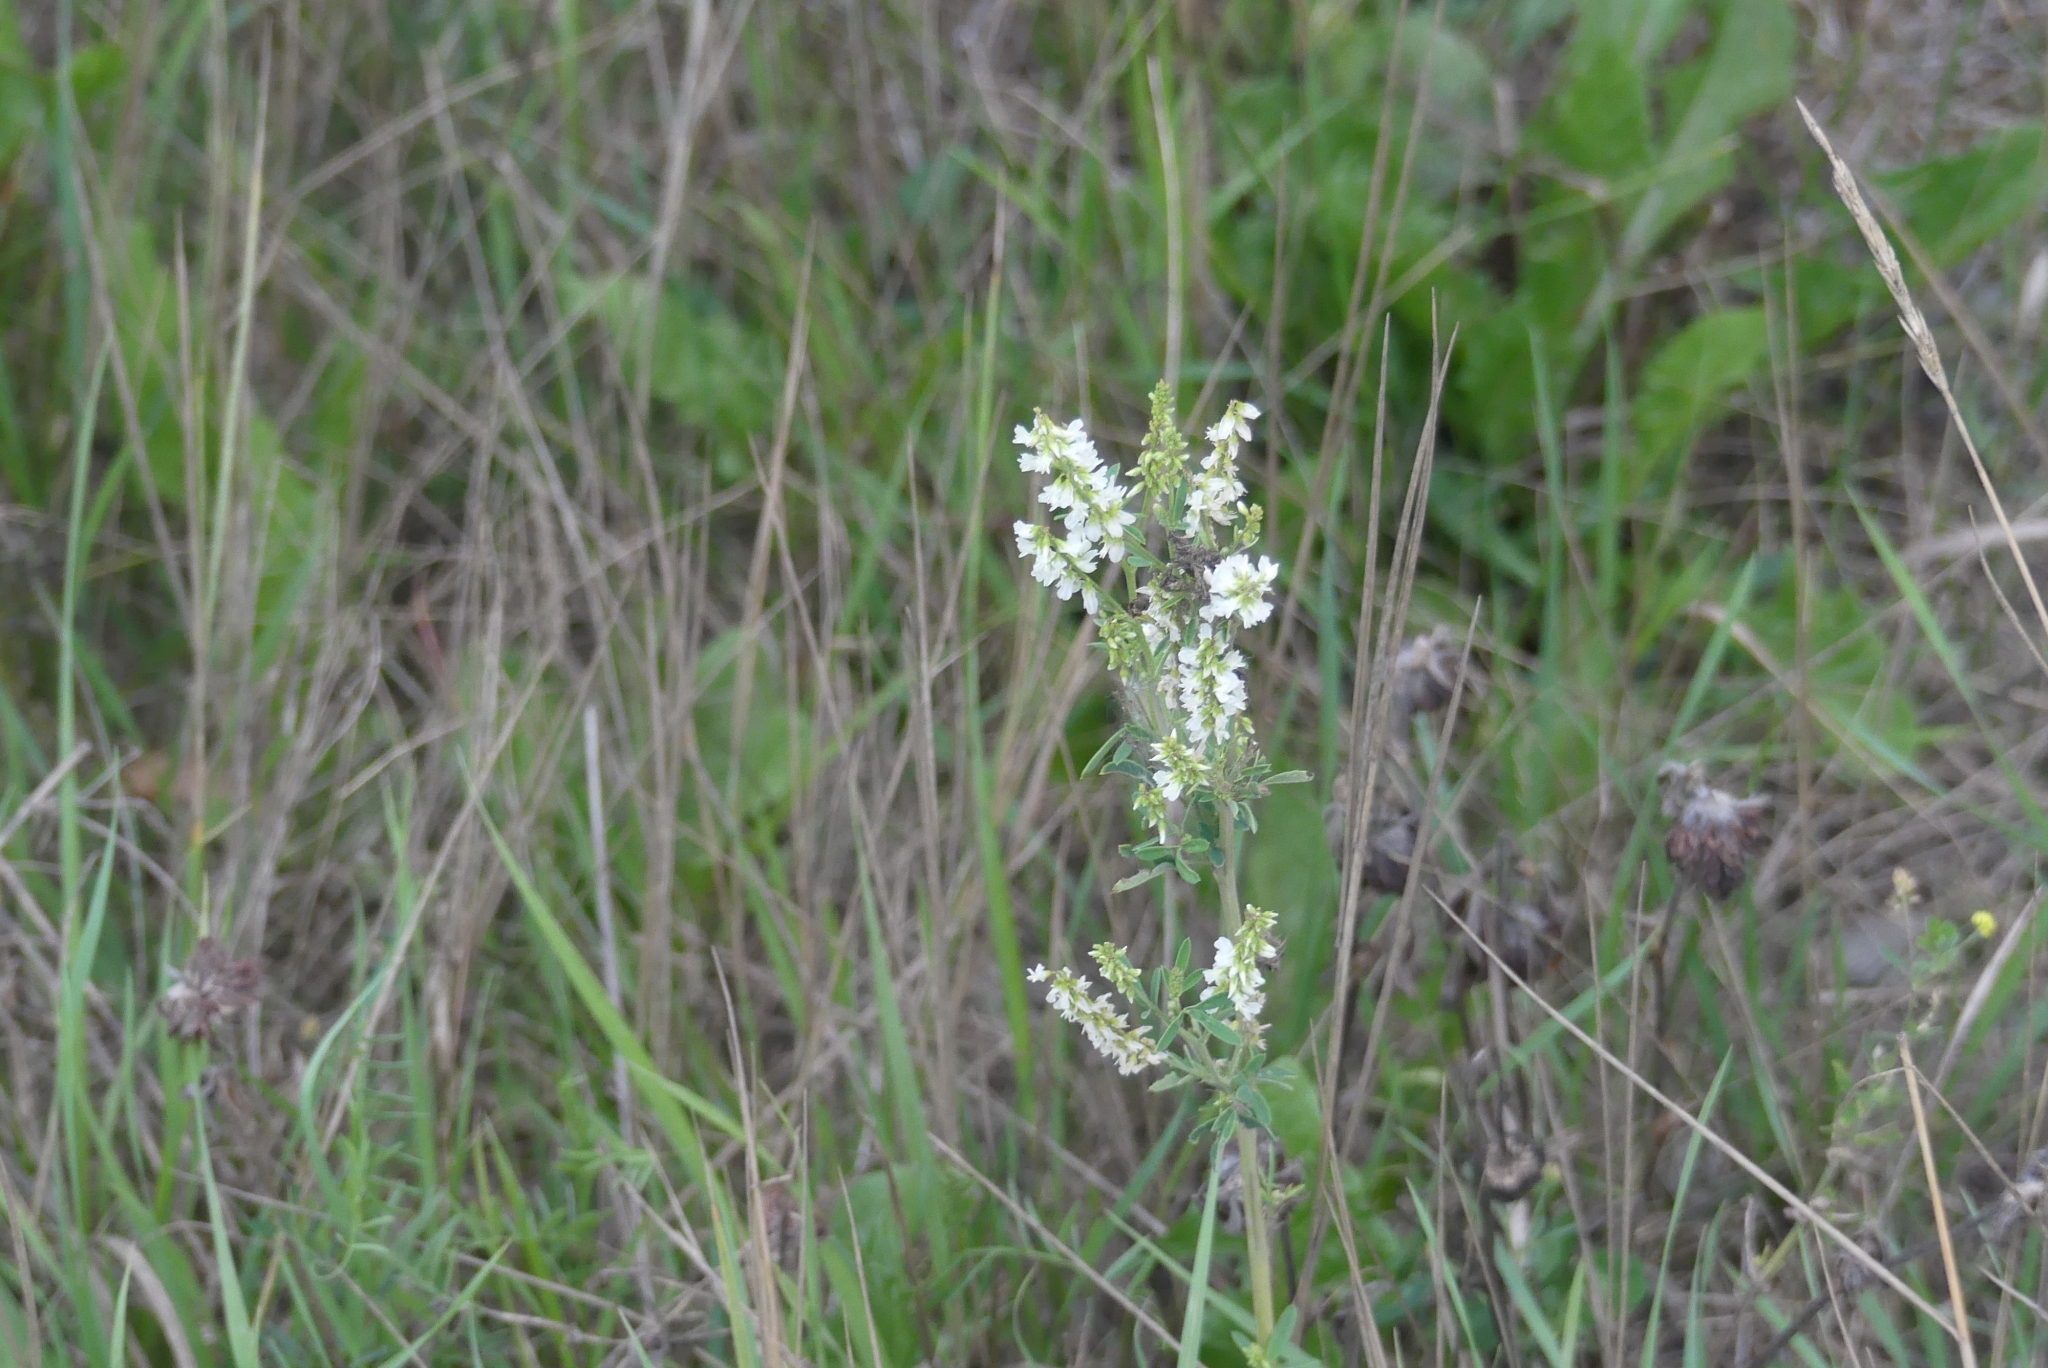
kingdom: Plantae
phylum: Tracheophyta
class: Magnoliopsida
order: Fabales
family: Fabaceae
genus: Melilotus
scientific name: Melilotus albus
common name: White melilot
